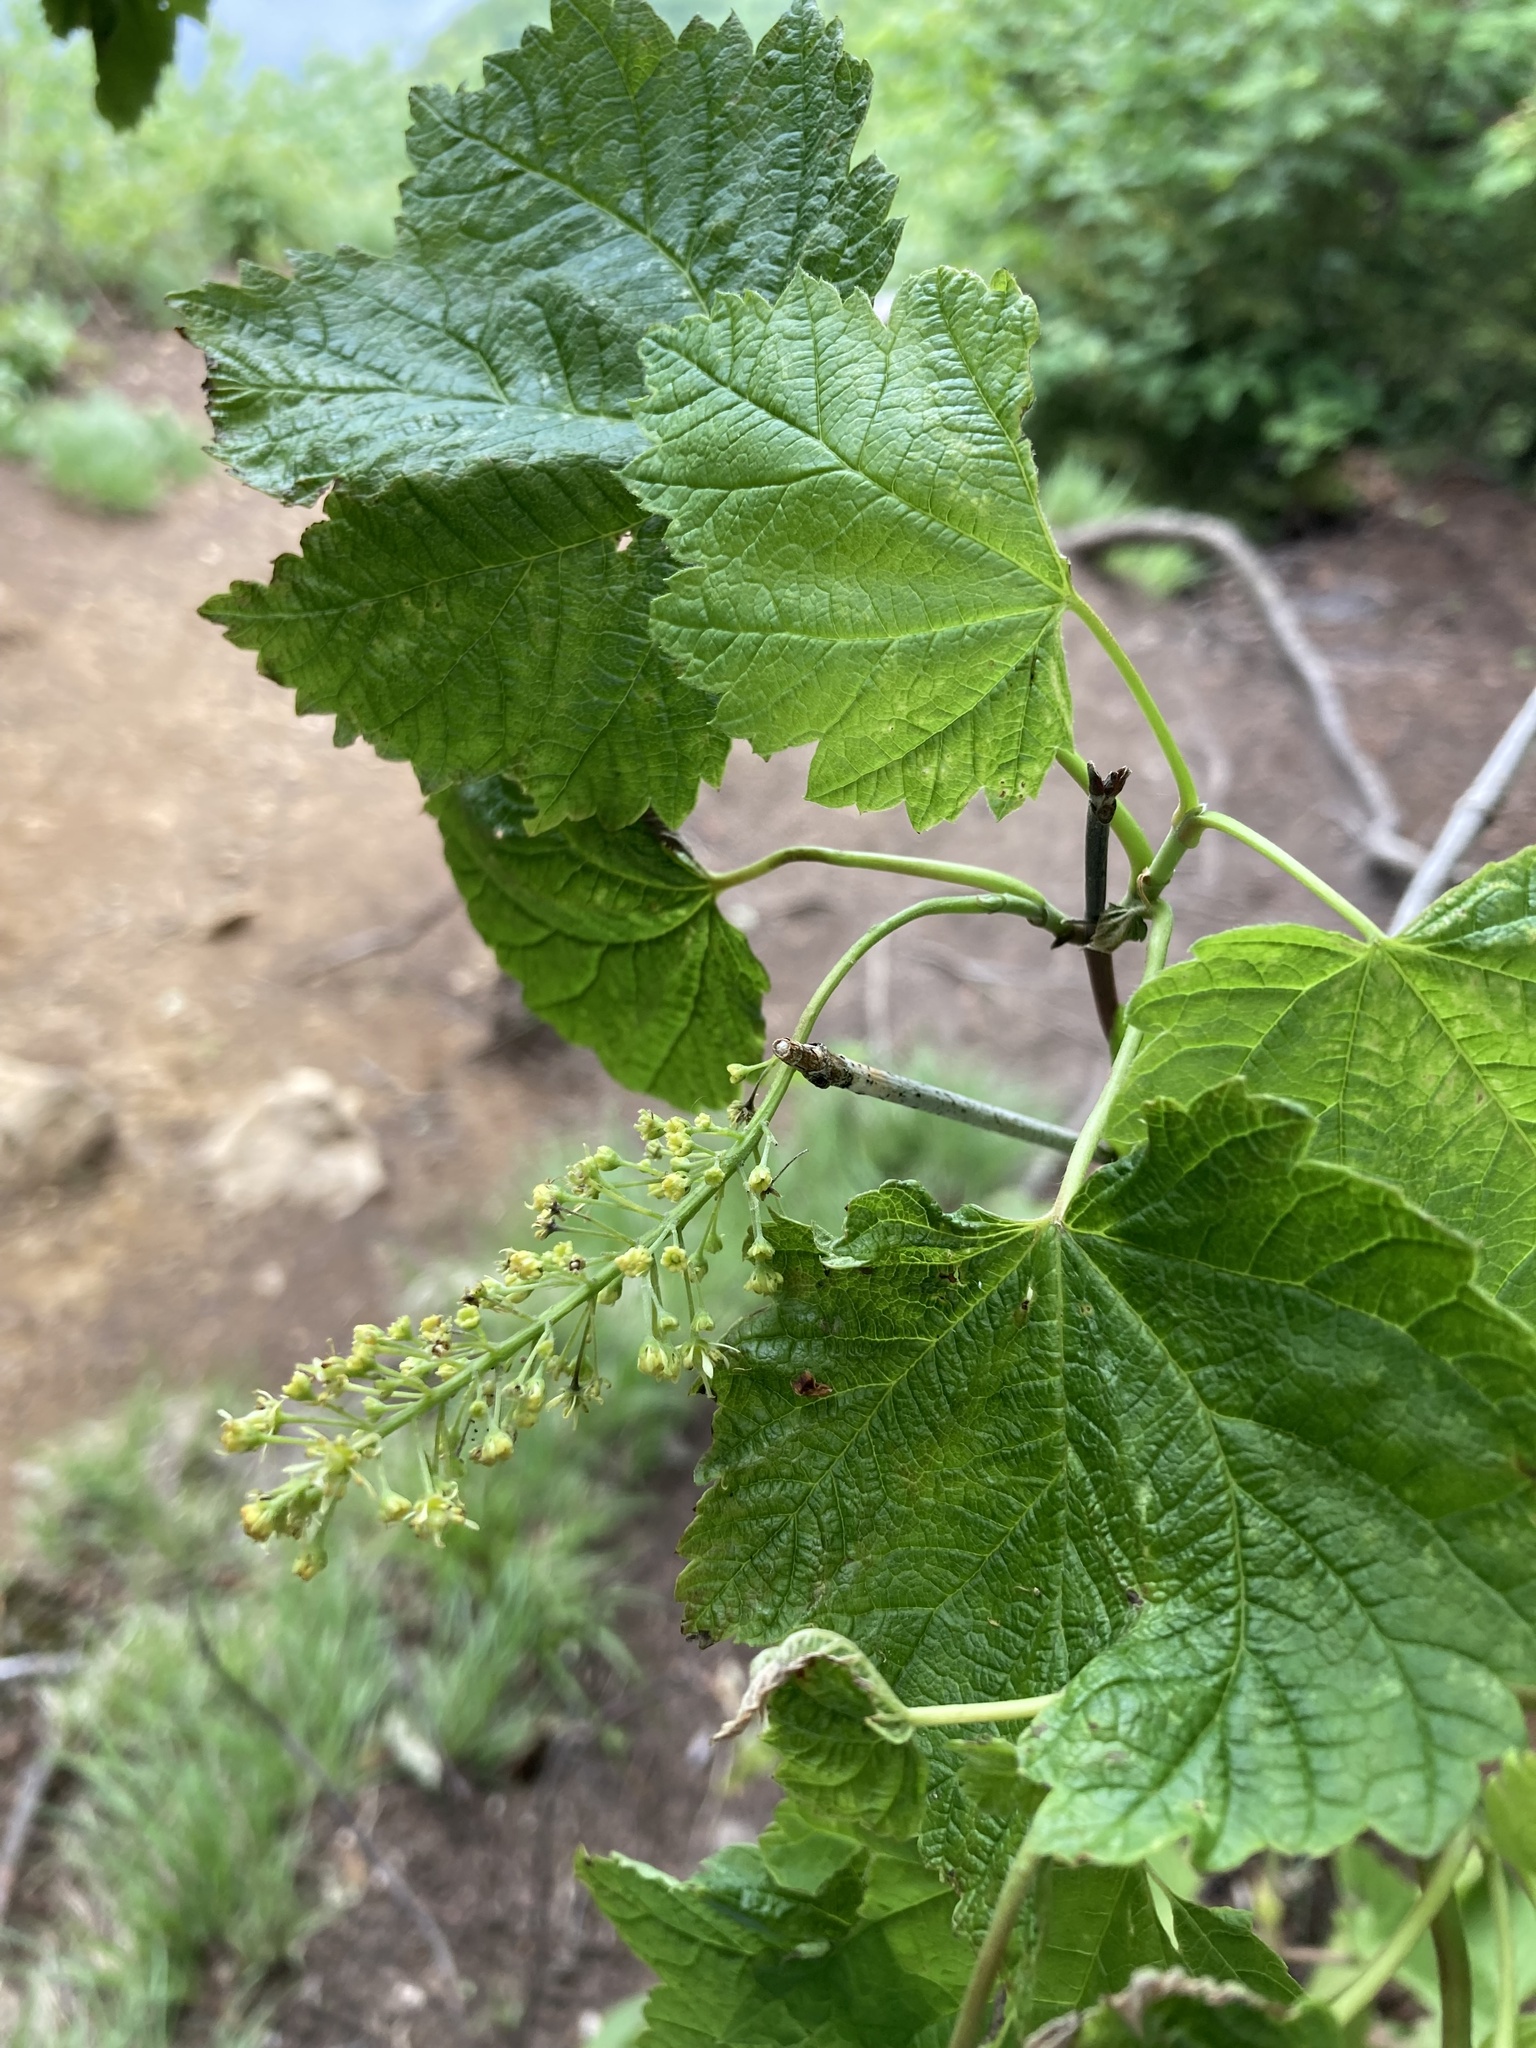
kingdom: Plantae
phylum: Tracheophyta
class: Magnoliopsida
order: Sapindales
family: Sapindaceae
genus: Acer
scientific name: Acer spicatum
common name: Mountain maple
